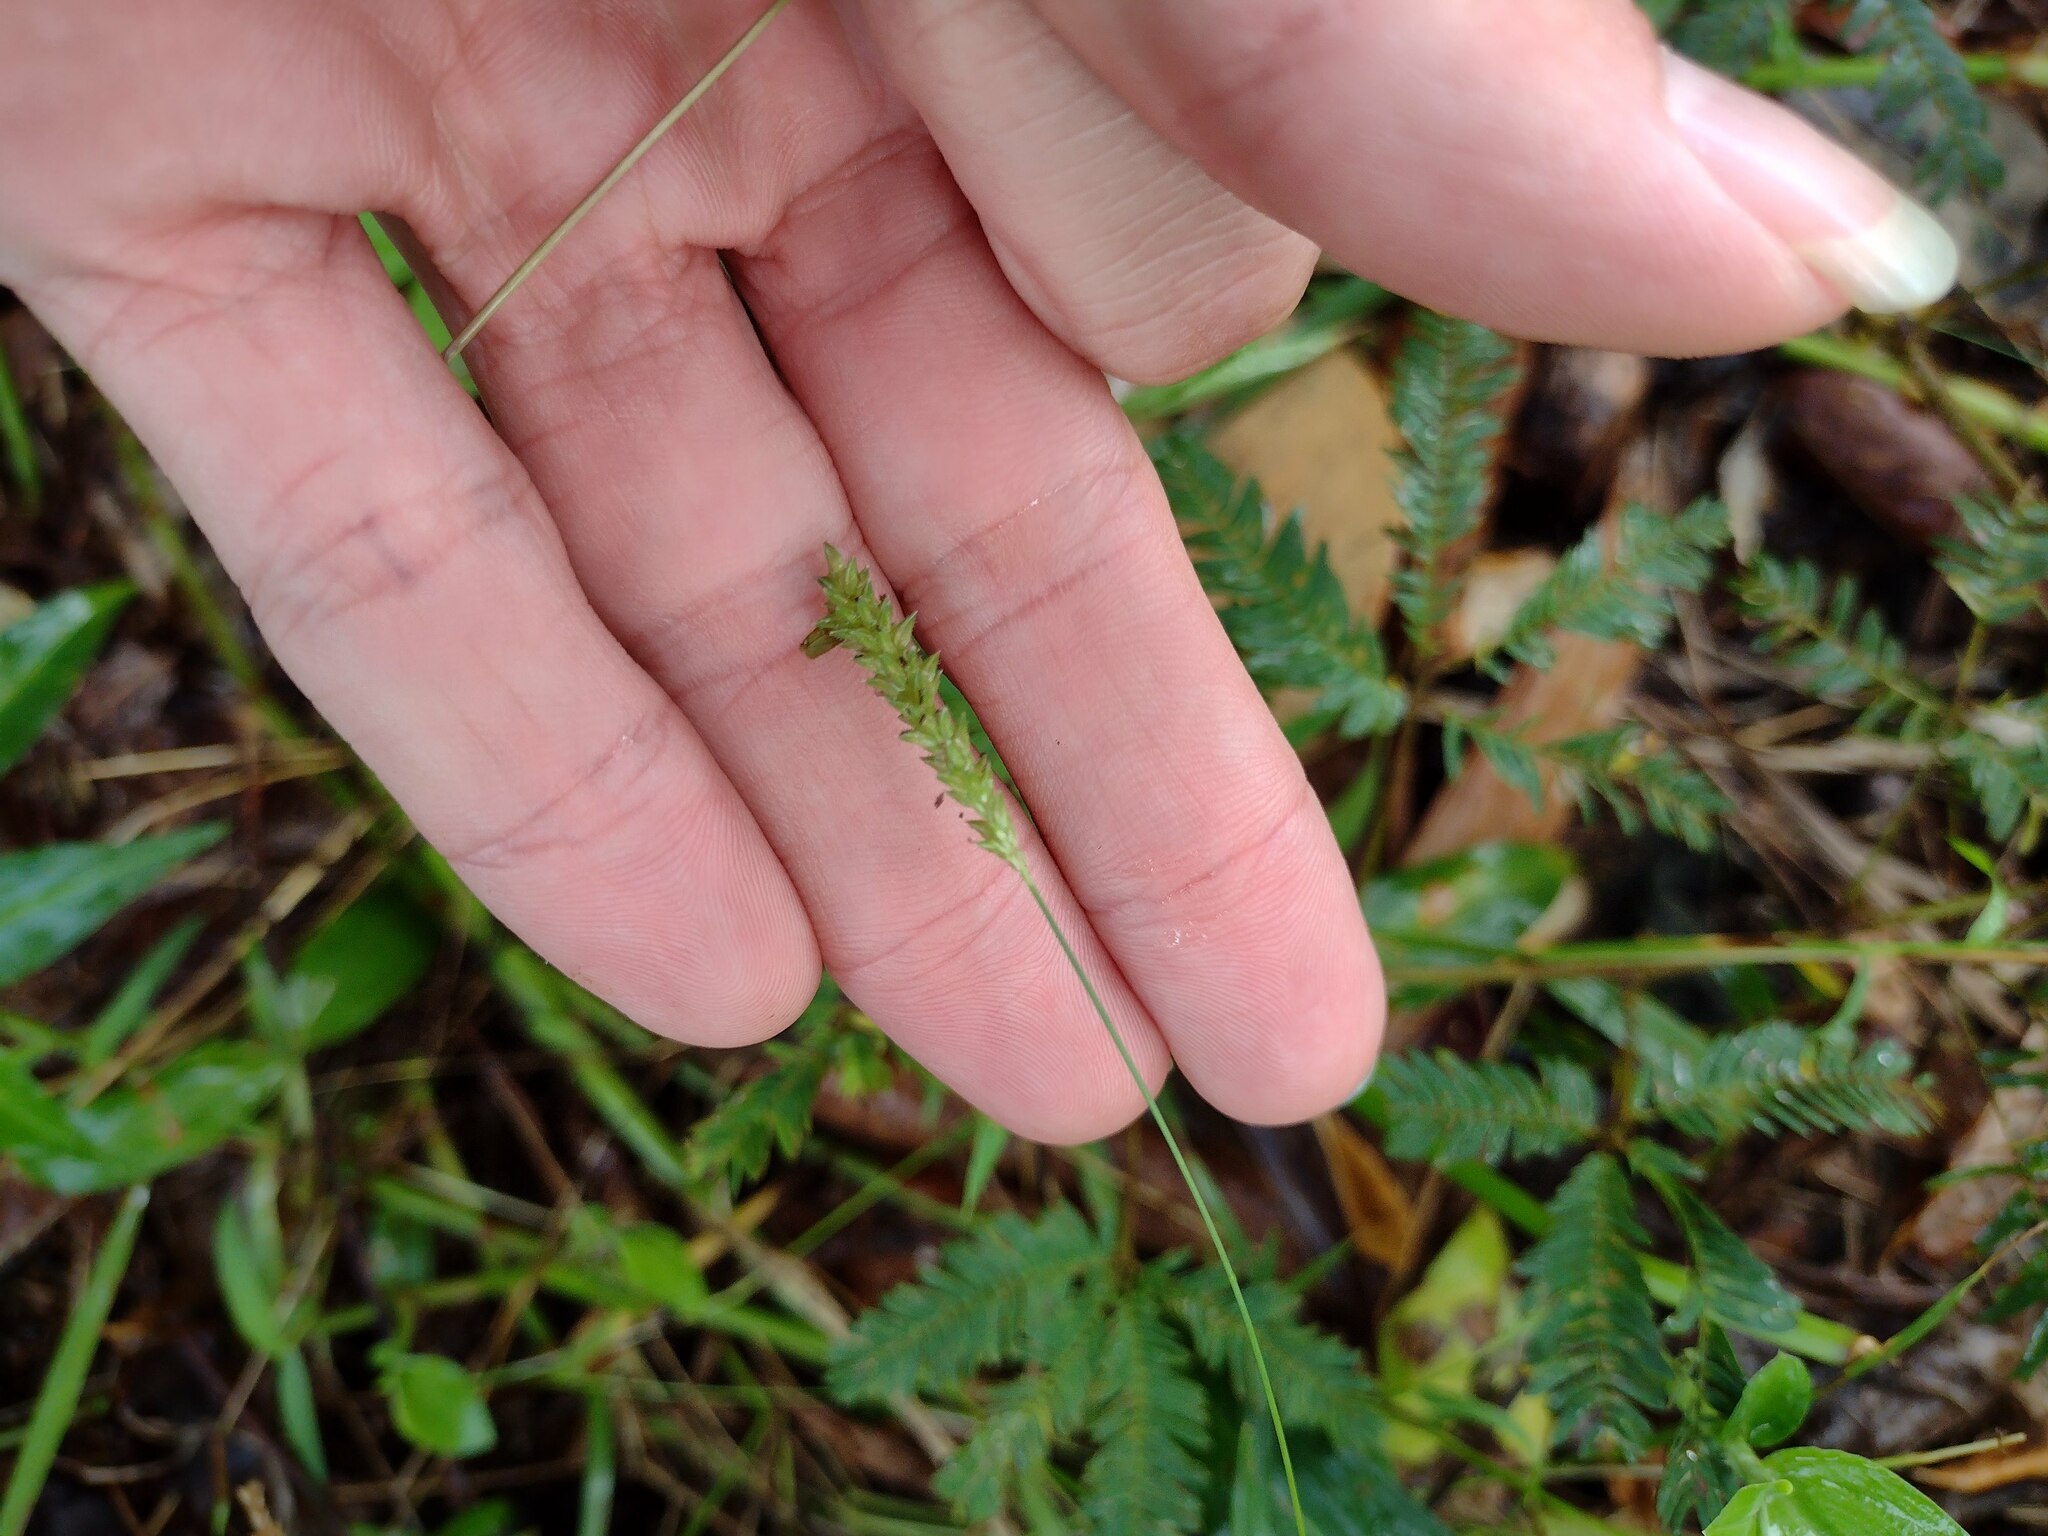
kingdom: Plantae
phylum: Tracheophyta
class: Liliopsida
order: Poales
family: Poaceae
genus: Sacciolepis
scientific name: Sacciolepis indica
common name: Glenwoodgrass
